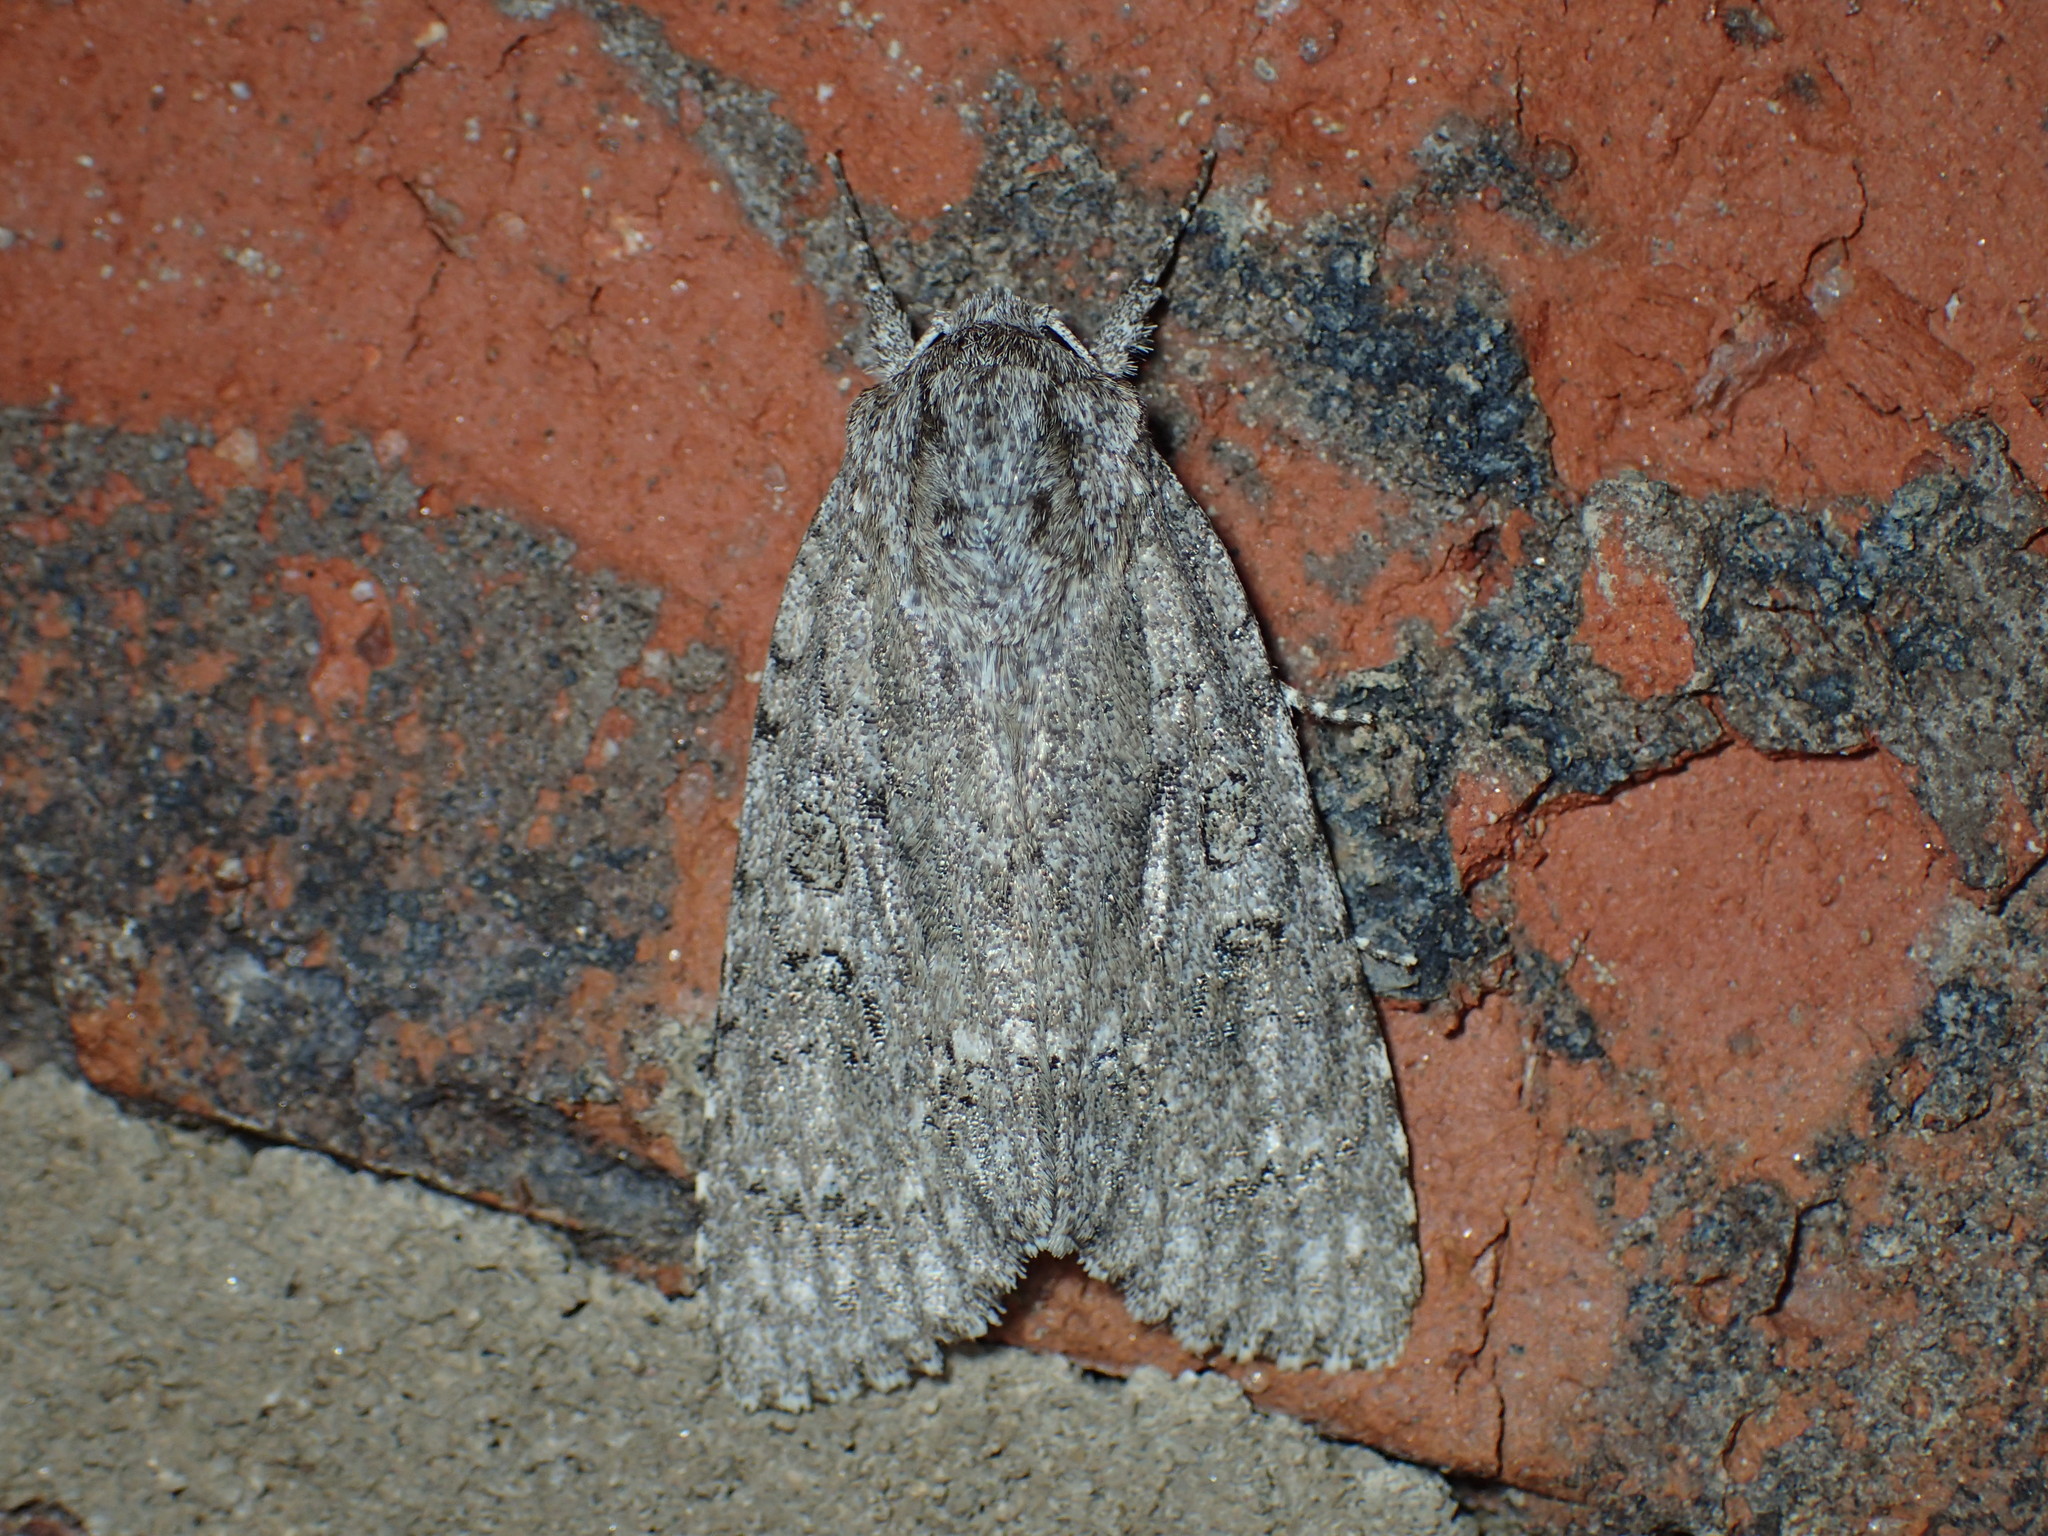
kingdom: Animalia
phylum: Arthropoda
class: Insecta
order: Lepidoptera
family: Noctuidae
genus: Acronicta
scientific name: Acronicta impleta
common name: Powdered dagger
